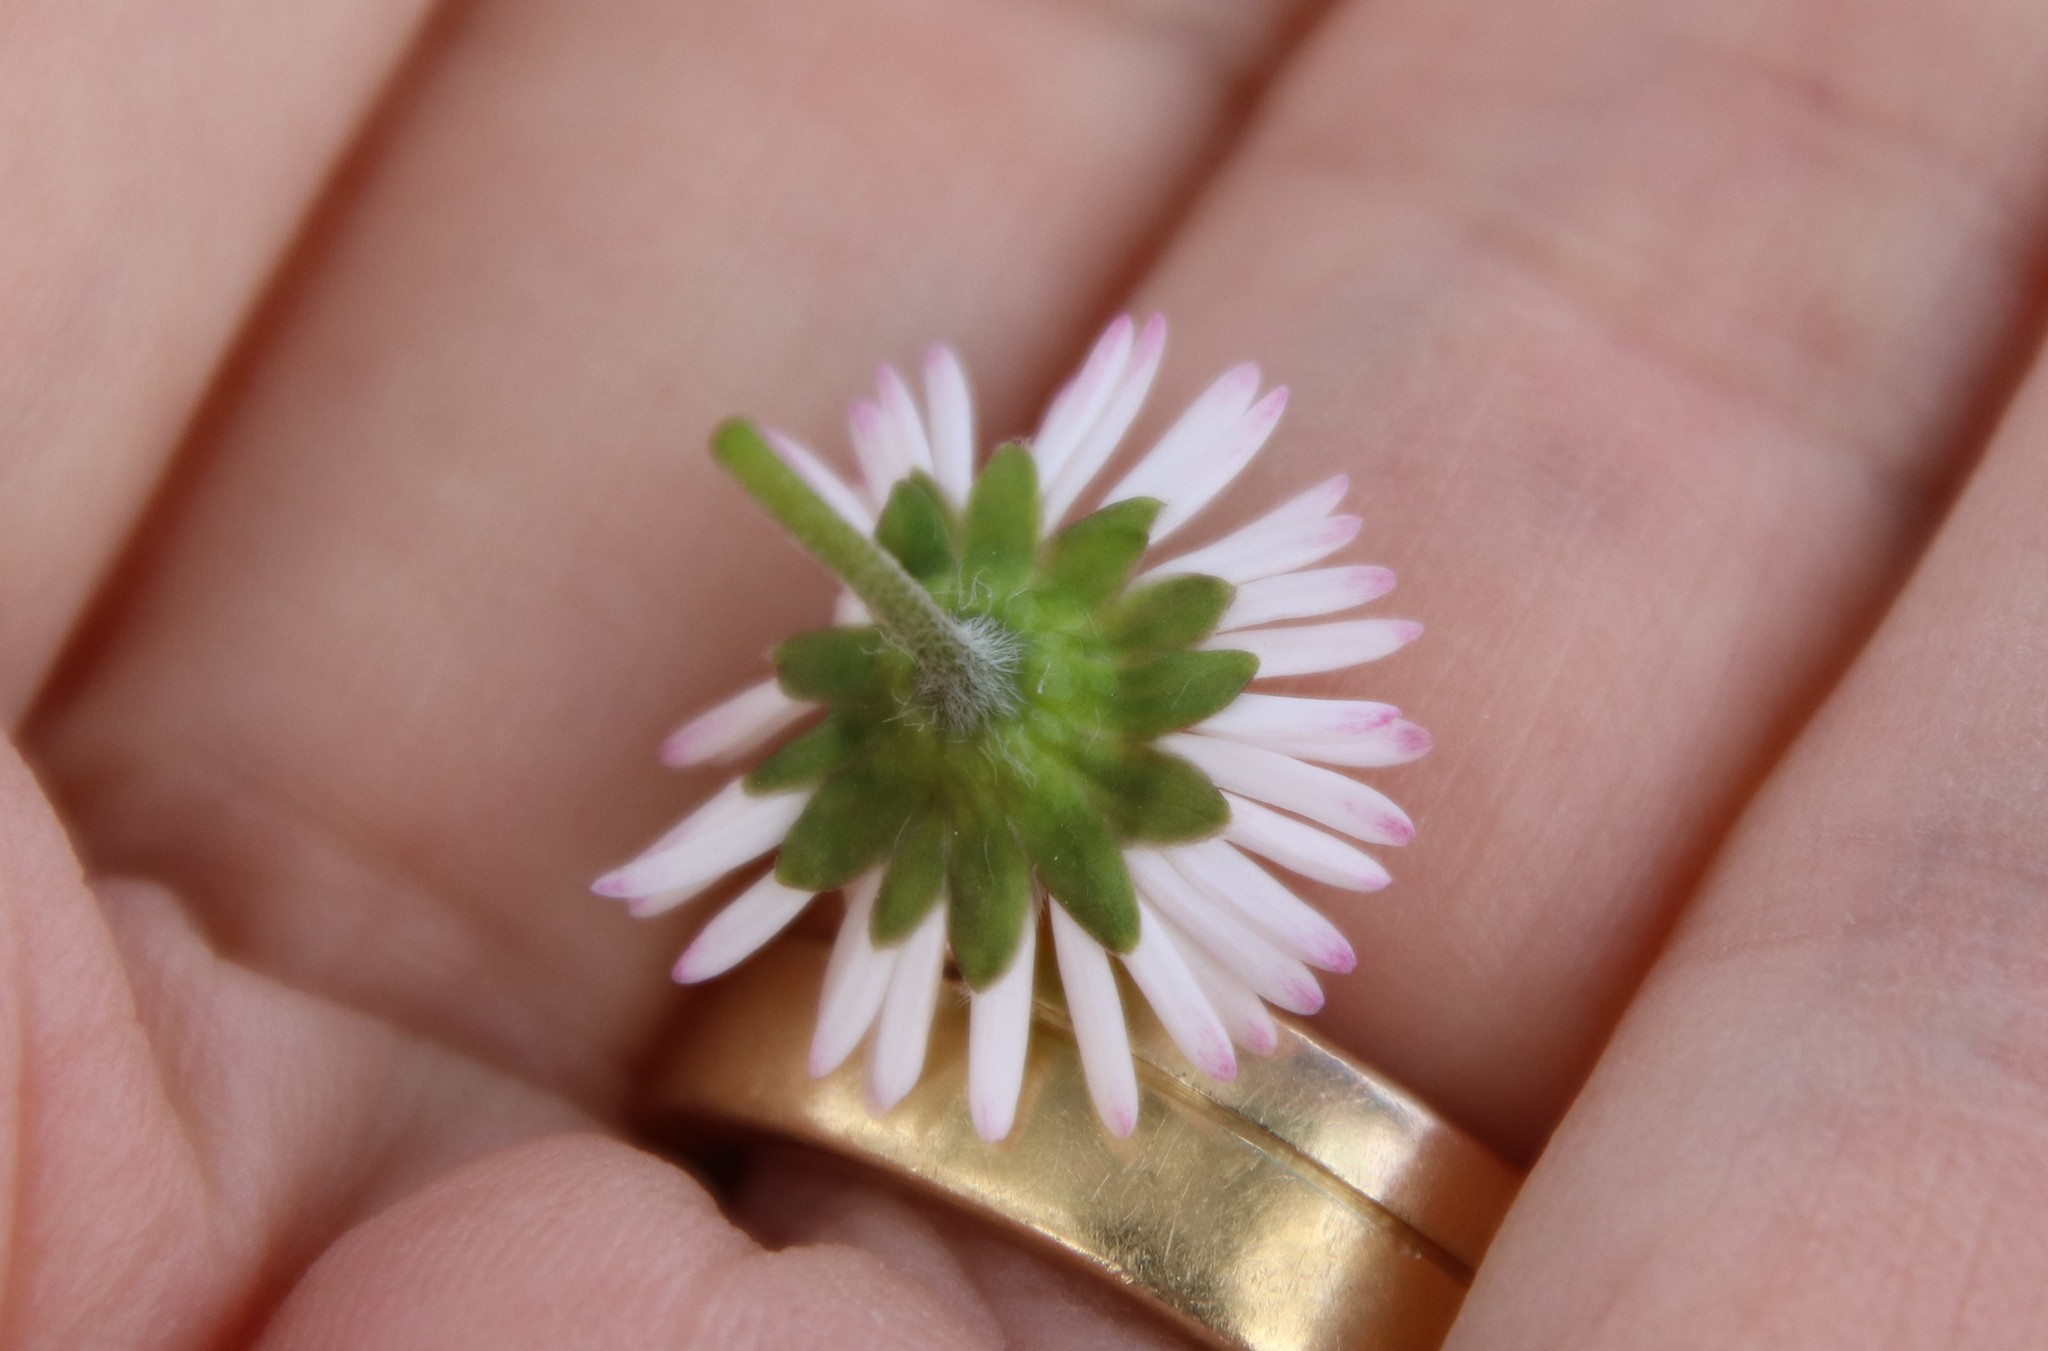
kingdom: Plantae
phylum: Tracheophyta
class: Magnoliopsida
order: Asterales
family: Asteraceae
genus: Bellis
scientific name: Bellis perennis
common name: Lawndaisy
